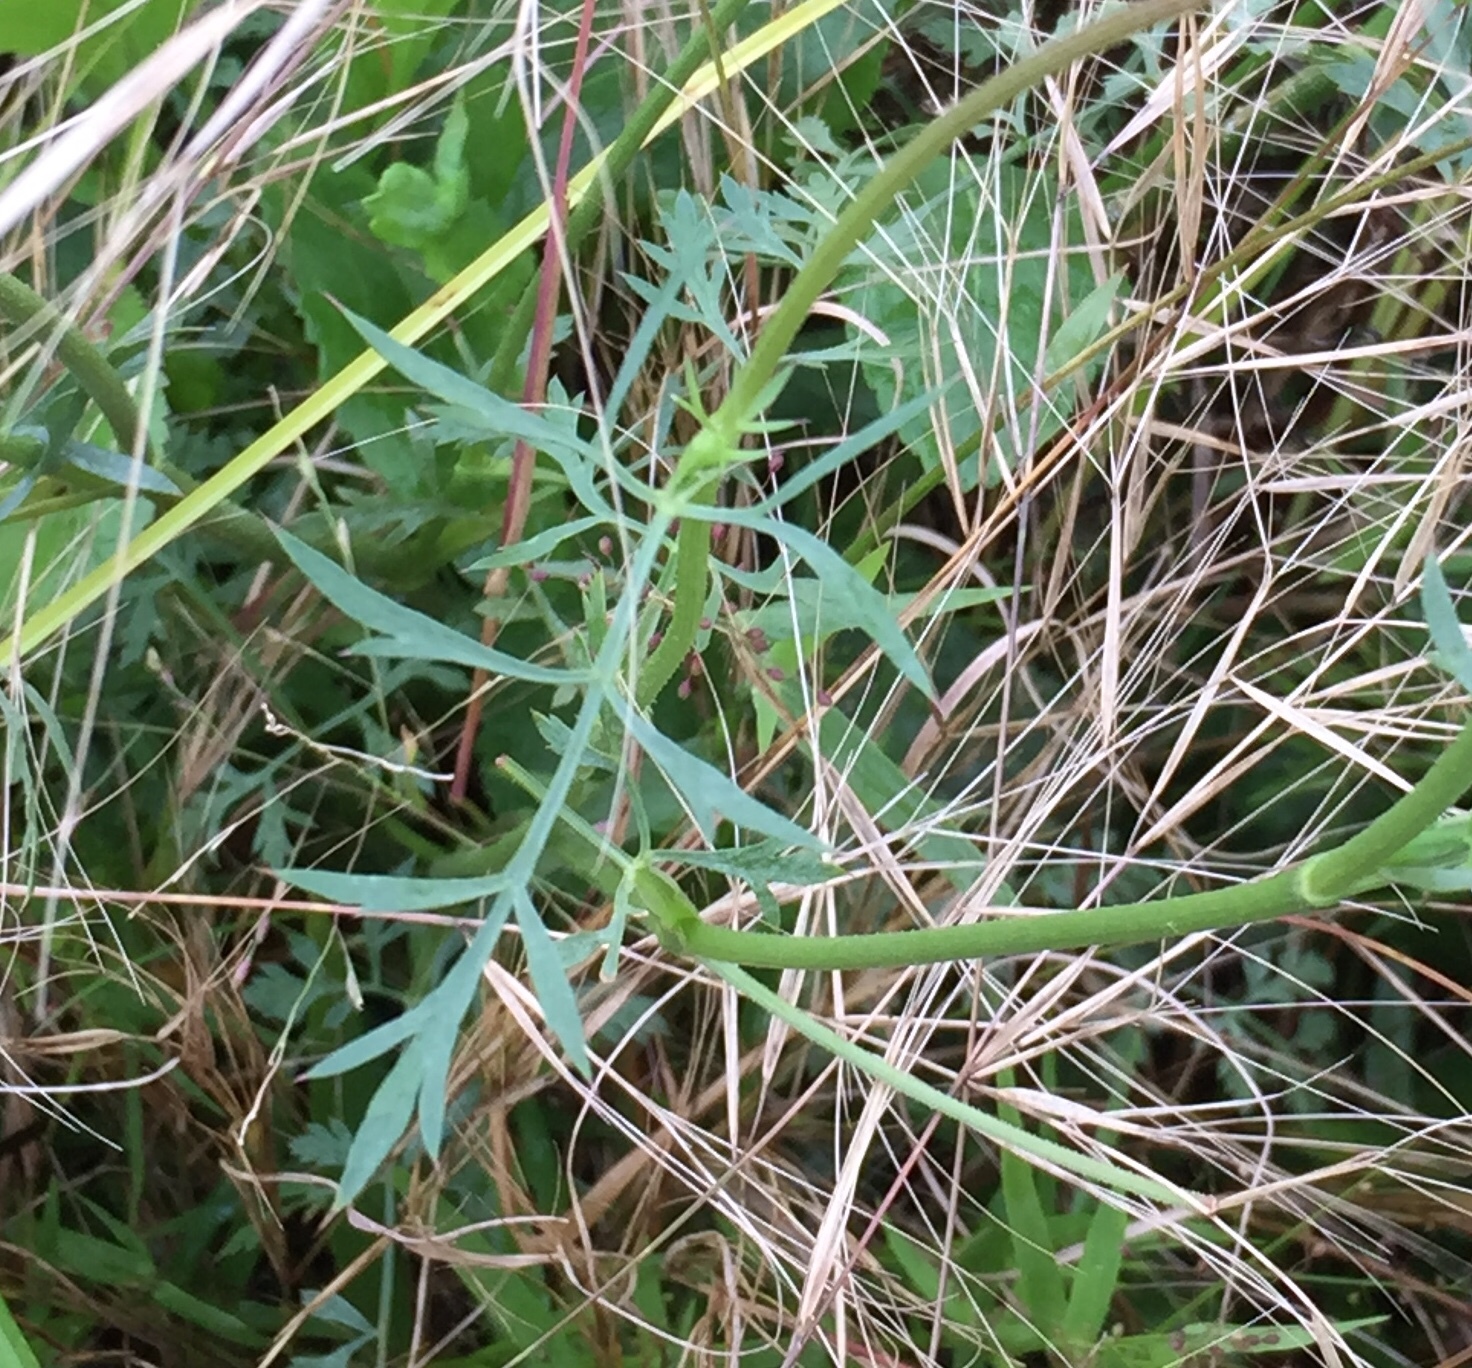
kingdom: Plantae
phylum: Tracheophyta
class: Magnoliopsida
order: Apiales
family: Apiaceae
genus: Daucus
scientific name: Daucus carota
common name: Wild carrot
